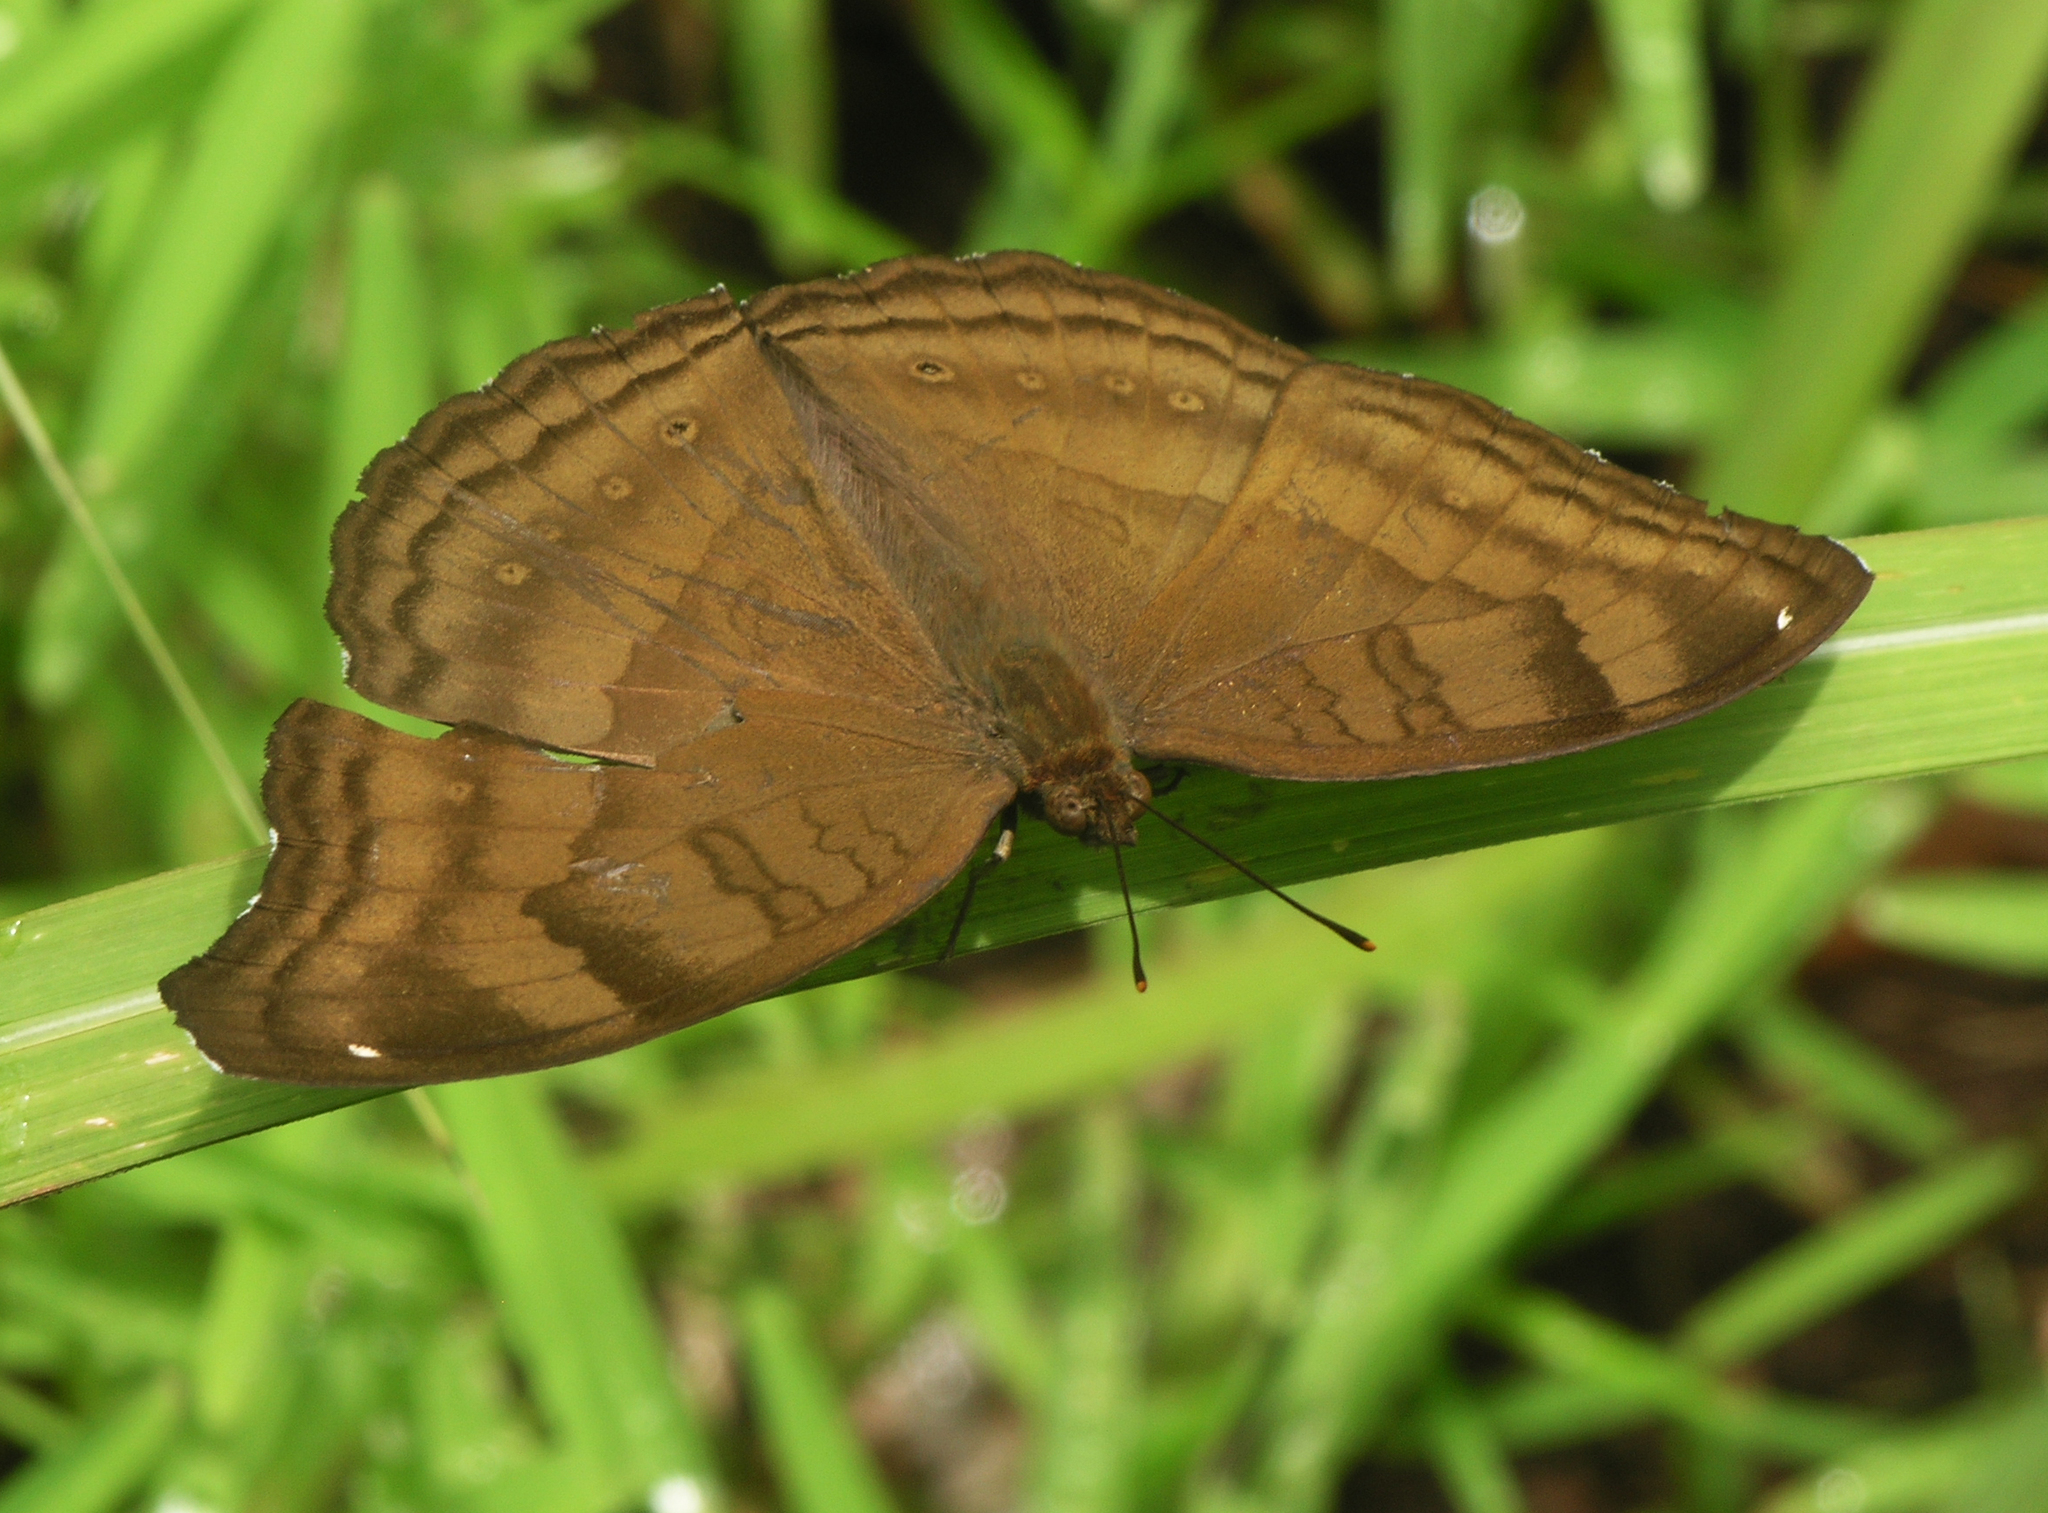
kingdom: Animalia
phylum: Arthropoda
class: Insecta
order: Lepidoptera
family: Nymphalidae
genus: Junonia
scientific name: Junonia iphita
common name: Chocolate pansy
